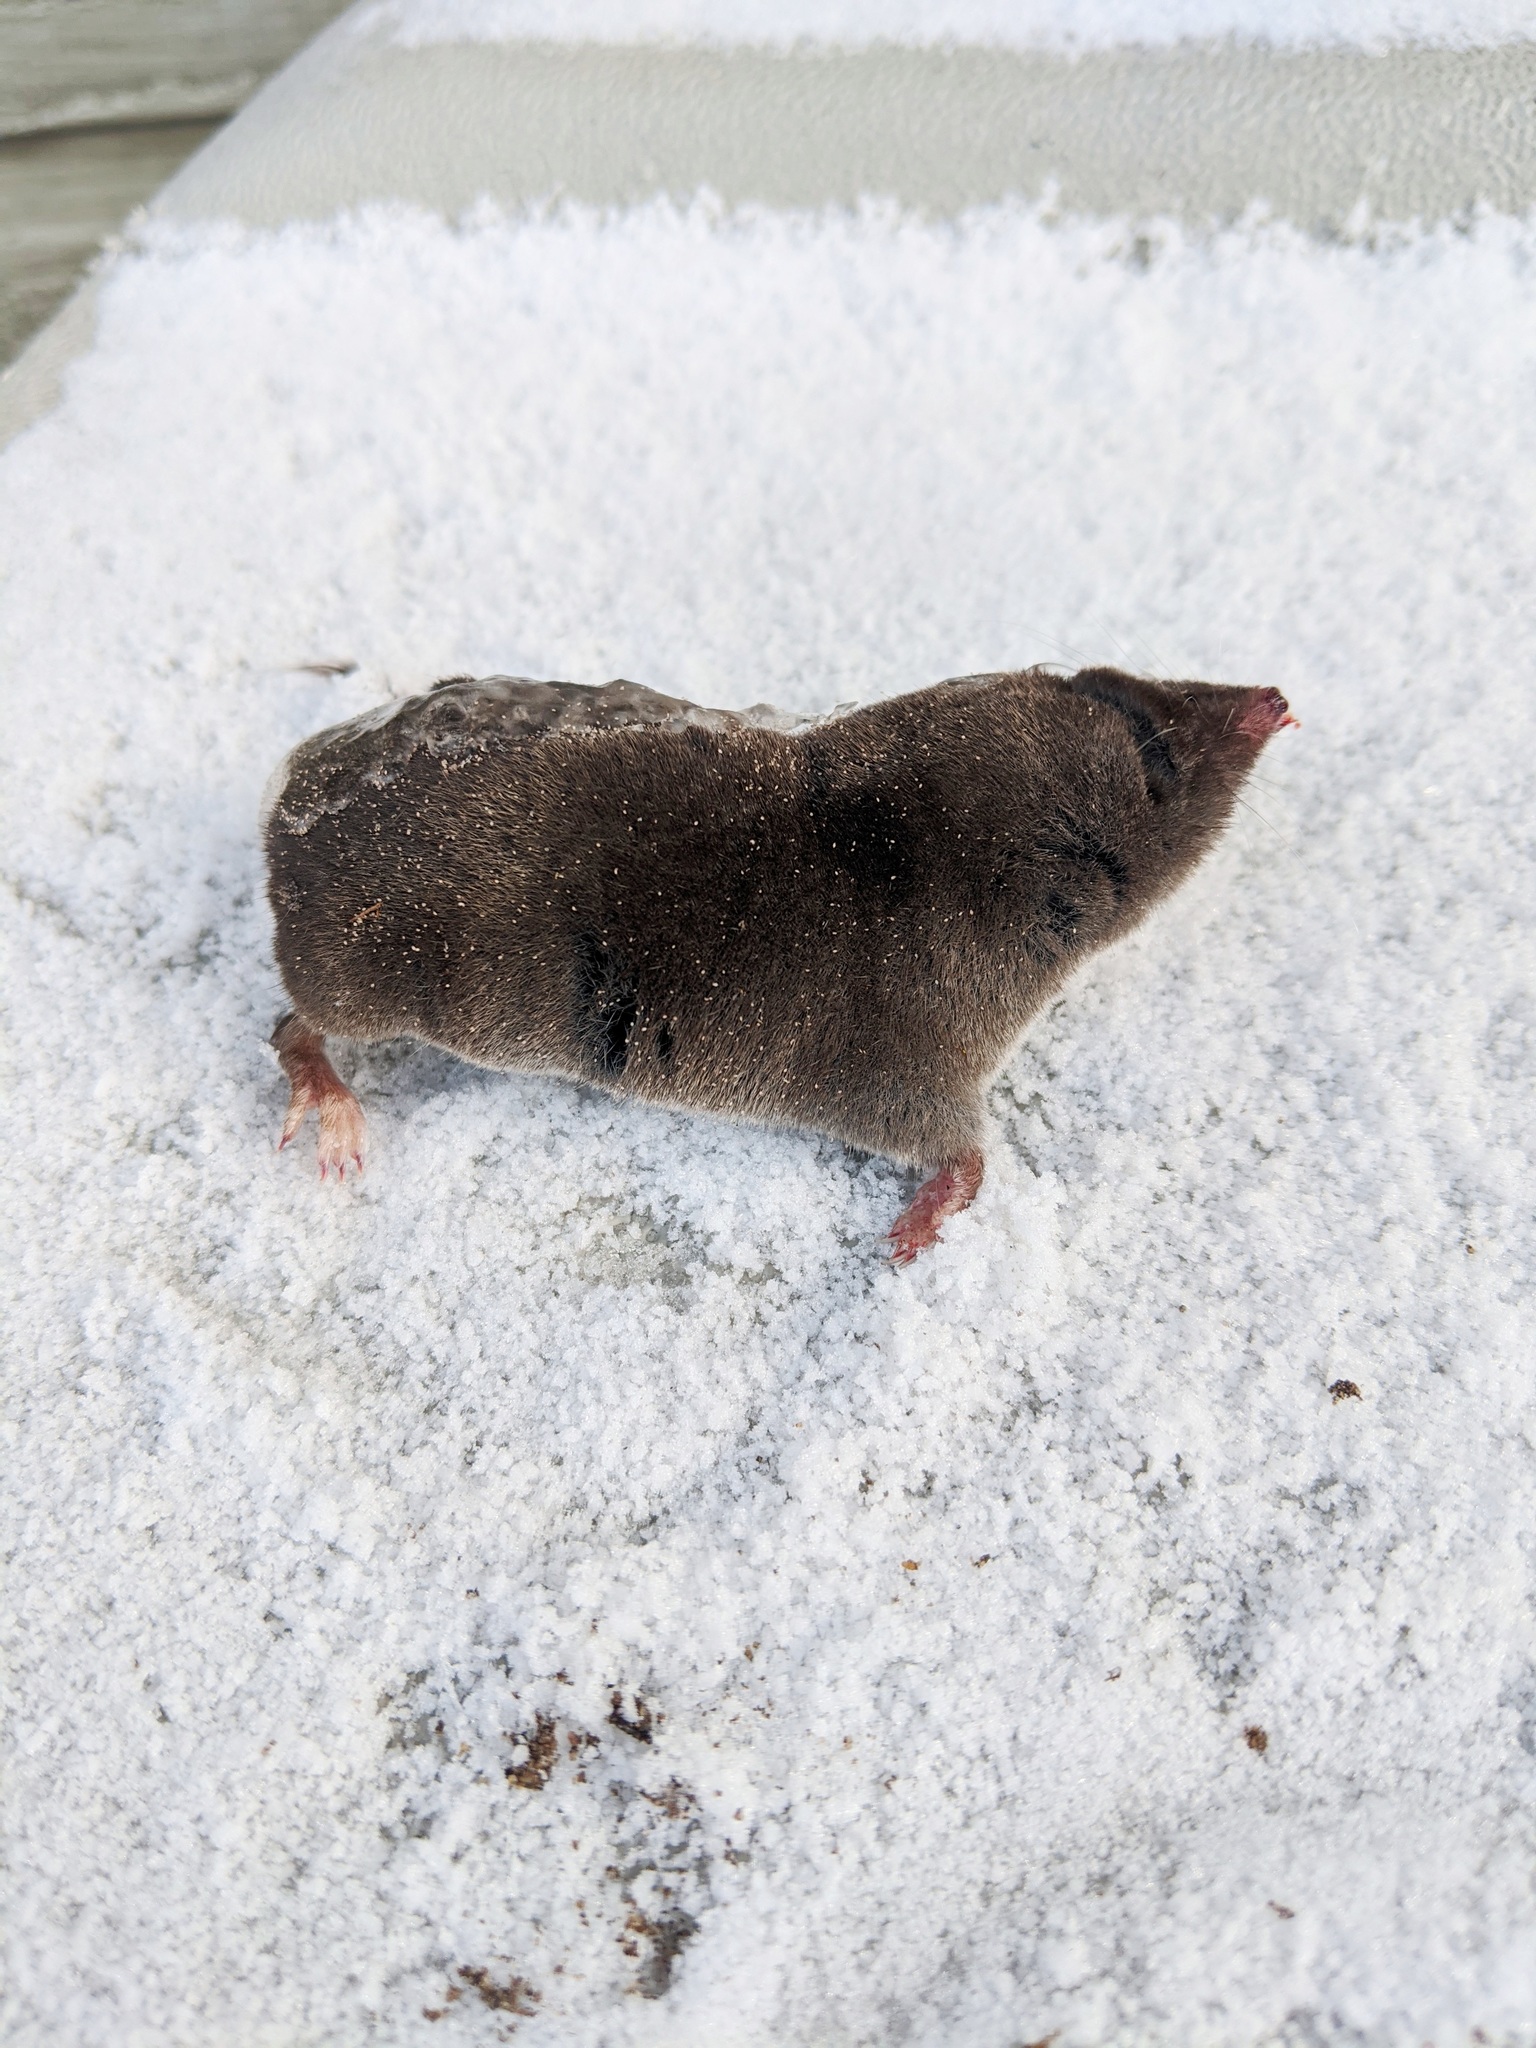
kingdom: Animalia
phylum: Chordata
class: Mammalia
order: Soricomorpha
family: Soricidae
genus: Blarina
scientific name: Blarina brevicauda
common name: Northern short-tailed shrew
